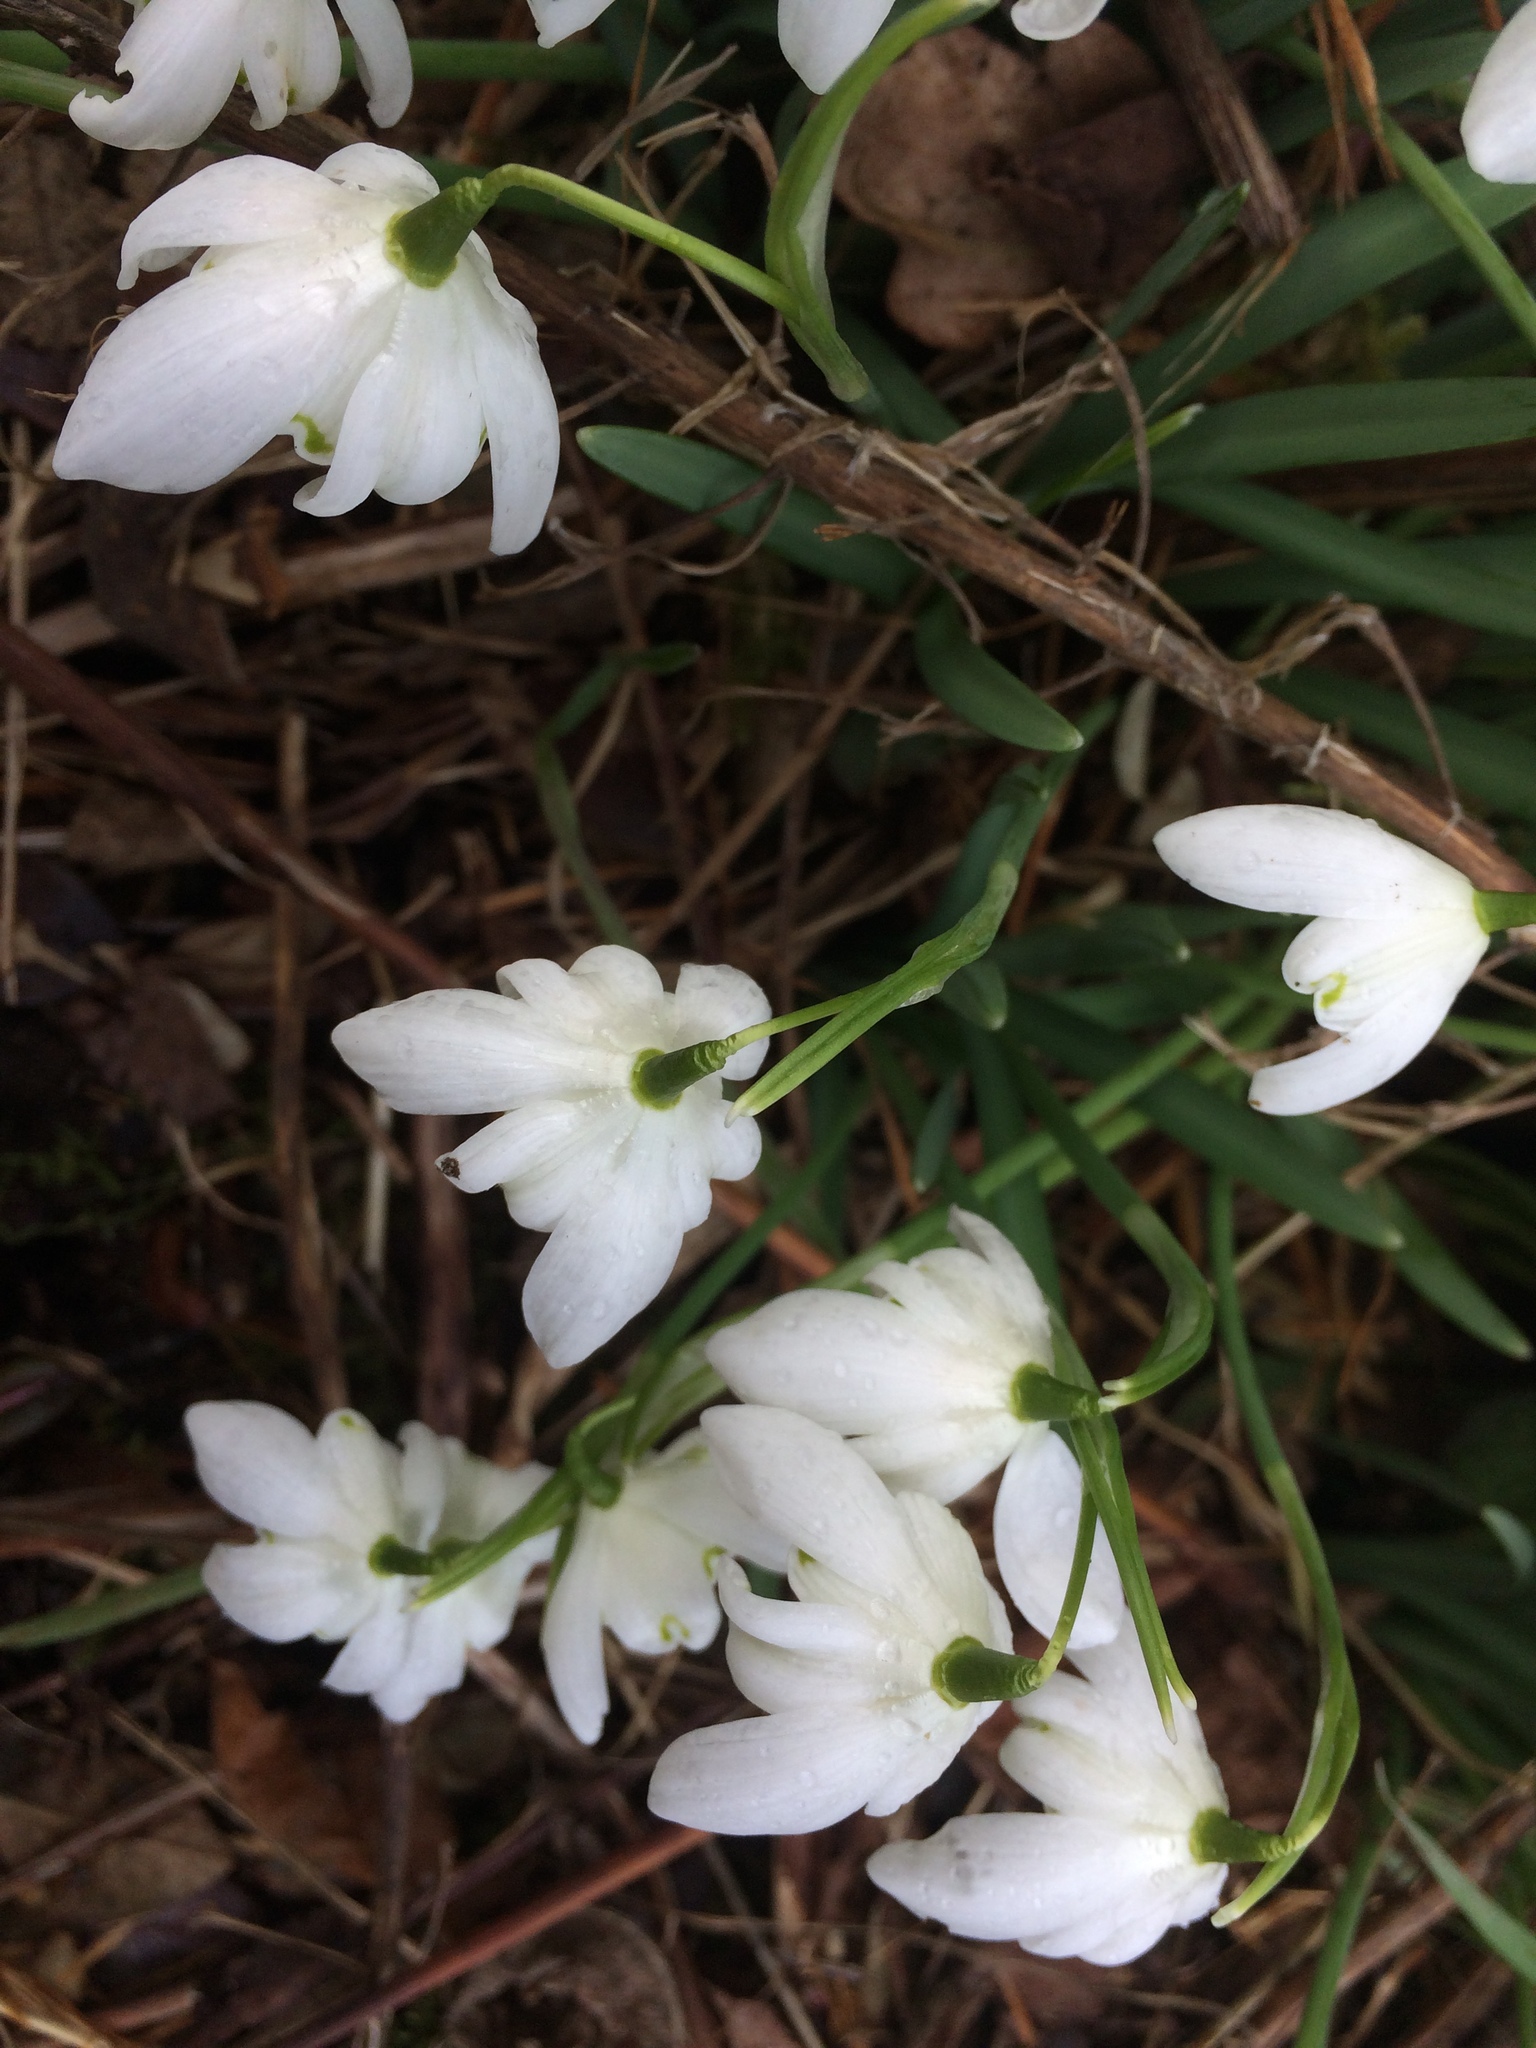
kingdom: Plantae
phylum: Tracheophyta
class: Liliopsida
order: Asparagales
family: Amaryllidaceae
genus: Galanthus
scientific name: Galanthus nivalis
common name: Snowdrop
